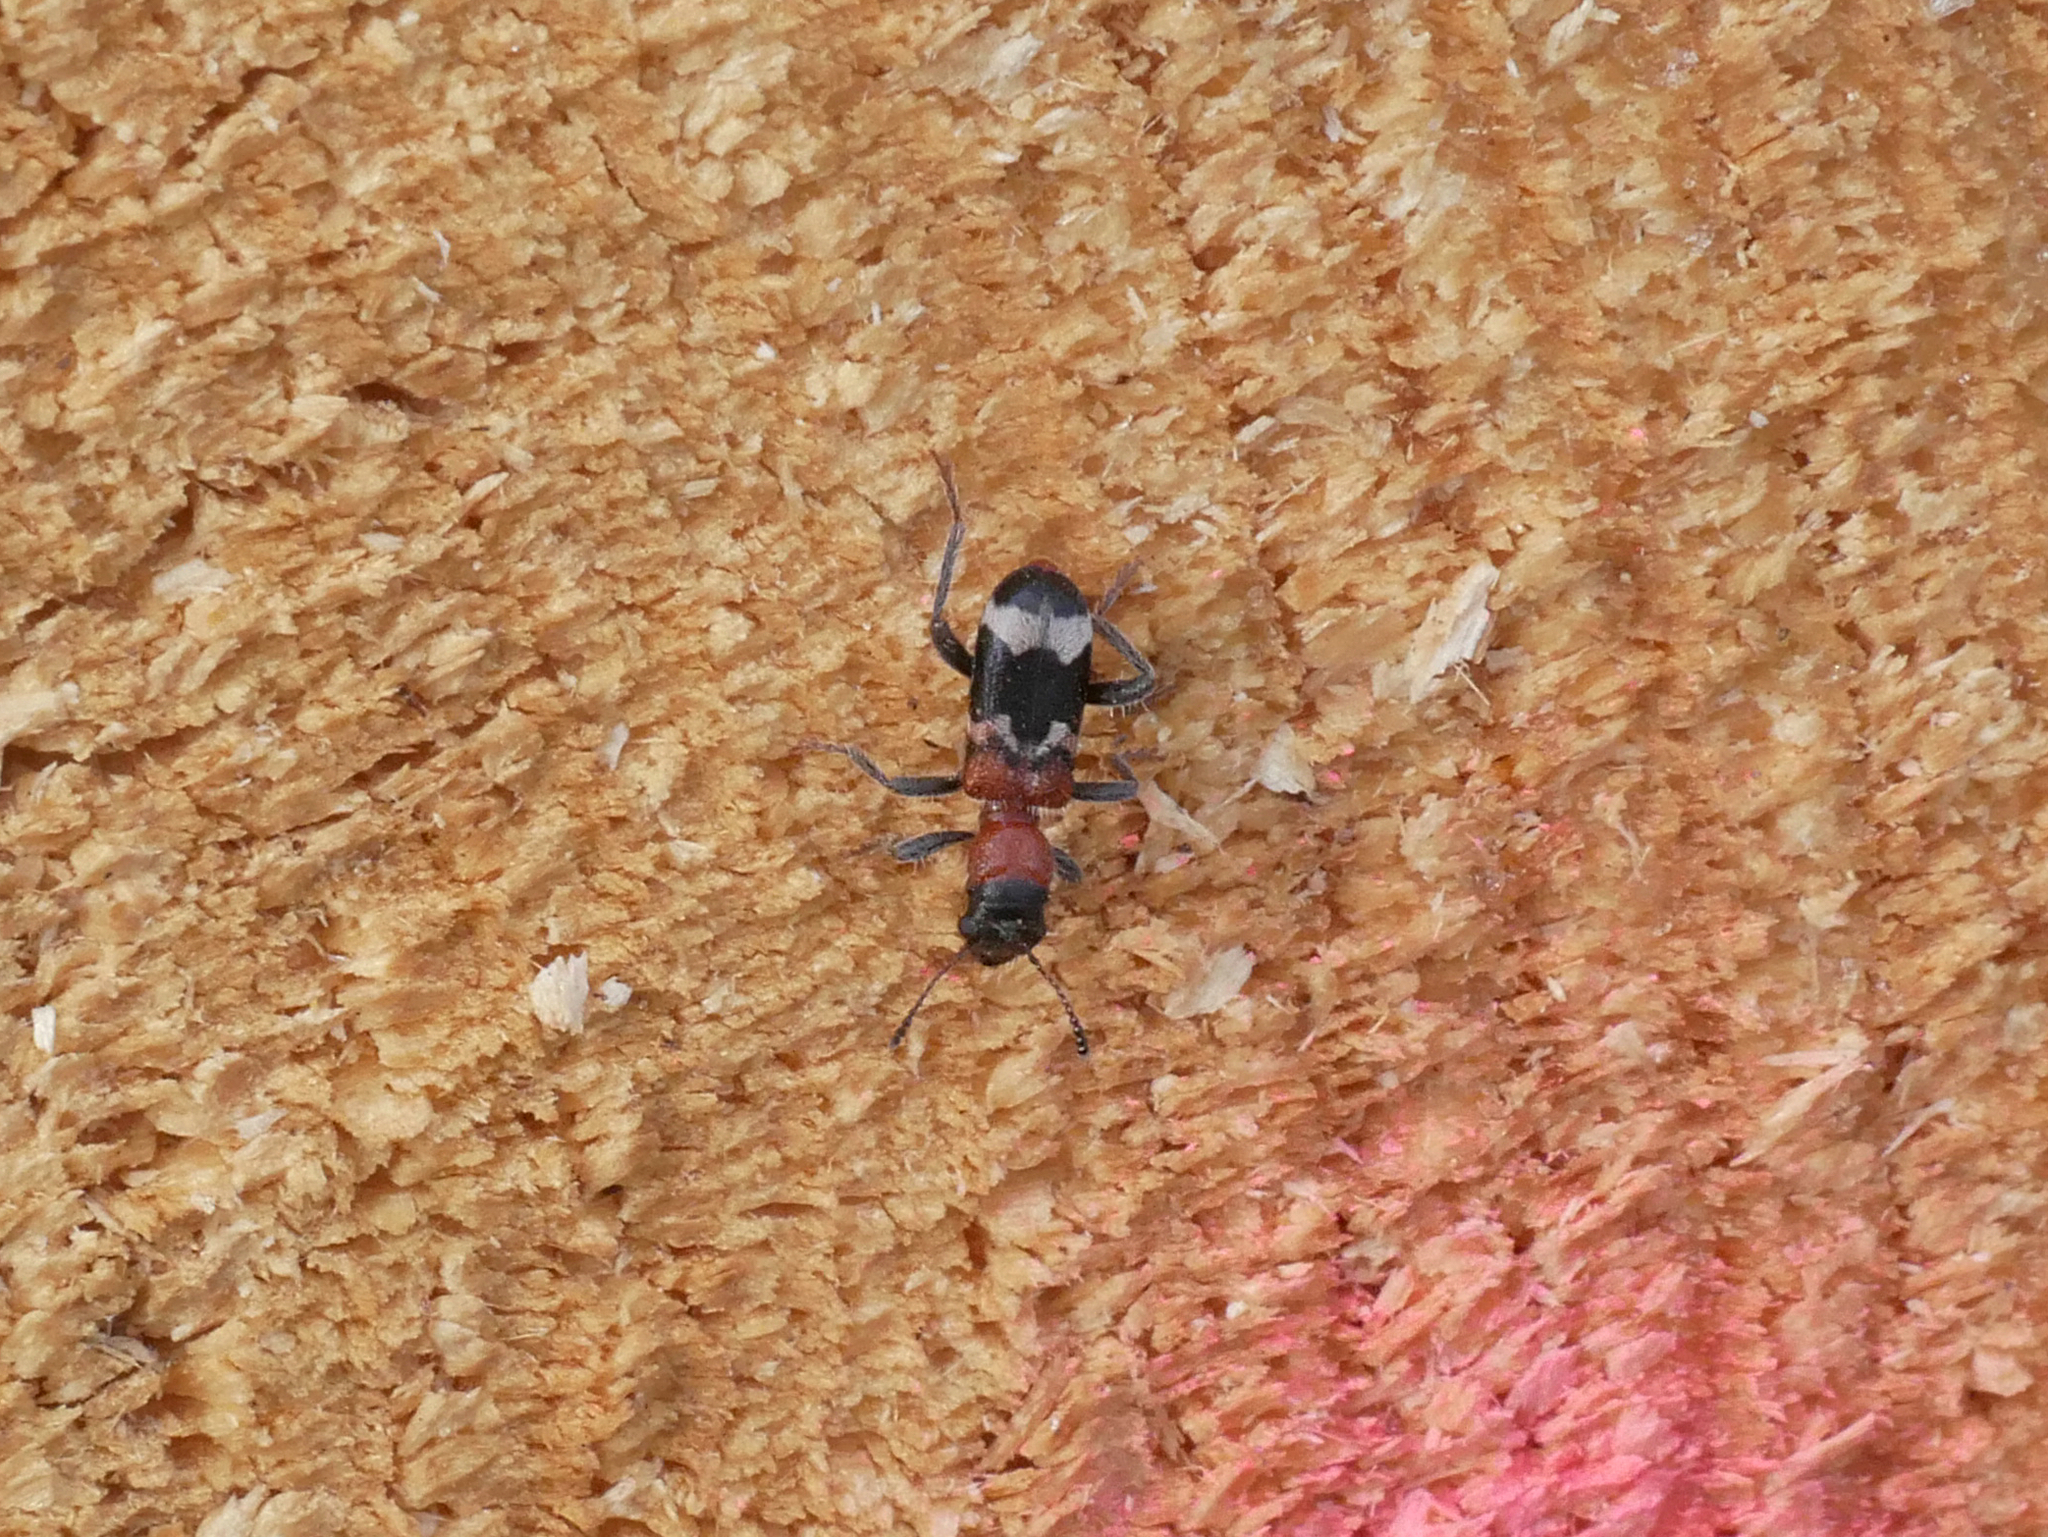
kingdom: Animalia
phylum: Arthropoda
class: Insecta
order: Coleoptera
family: Cleridae
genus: Thanasimus
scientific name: Thanasimus formicarius
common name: Ant beetle
